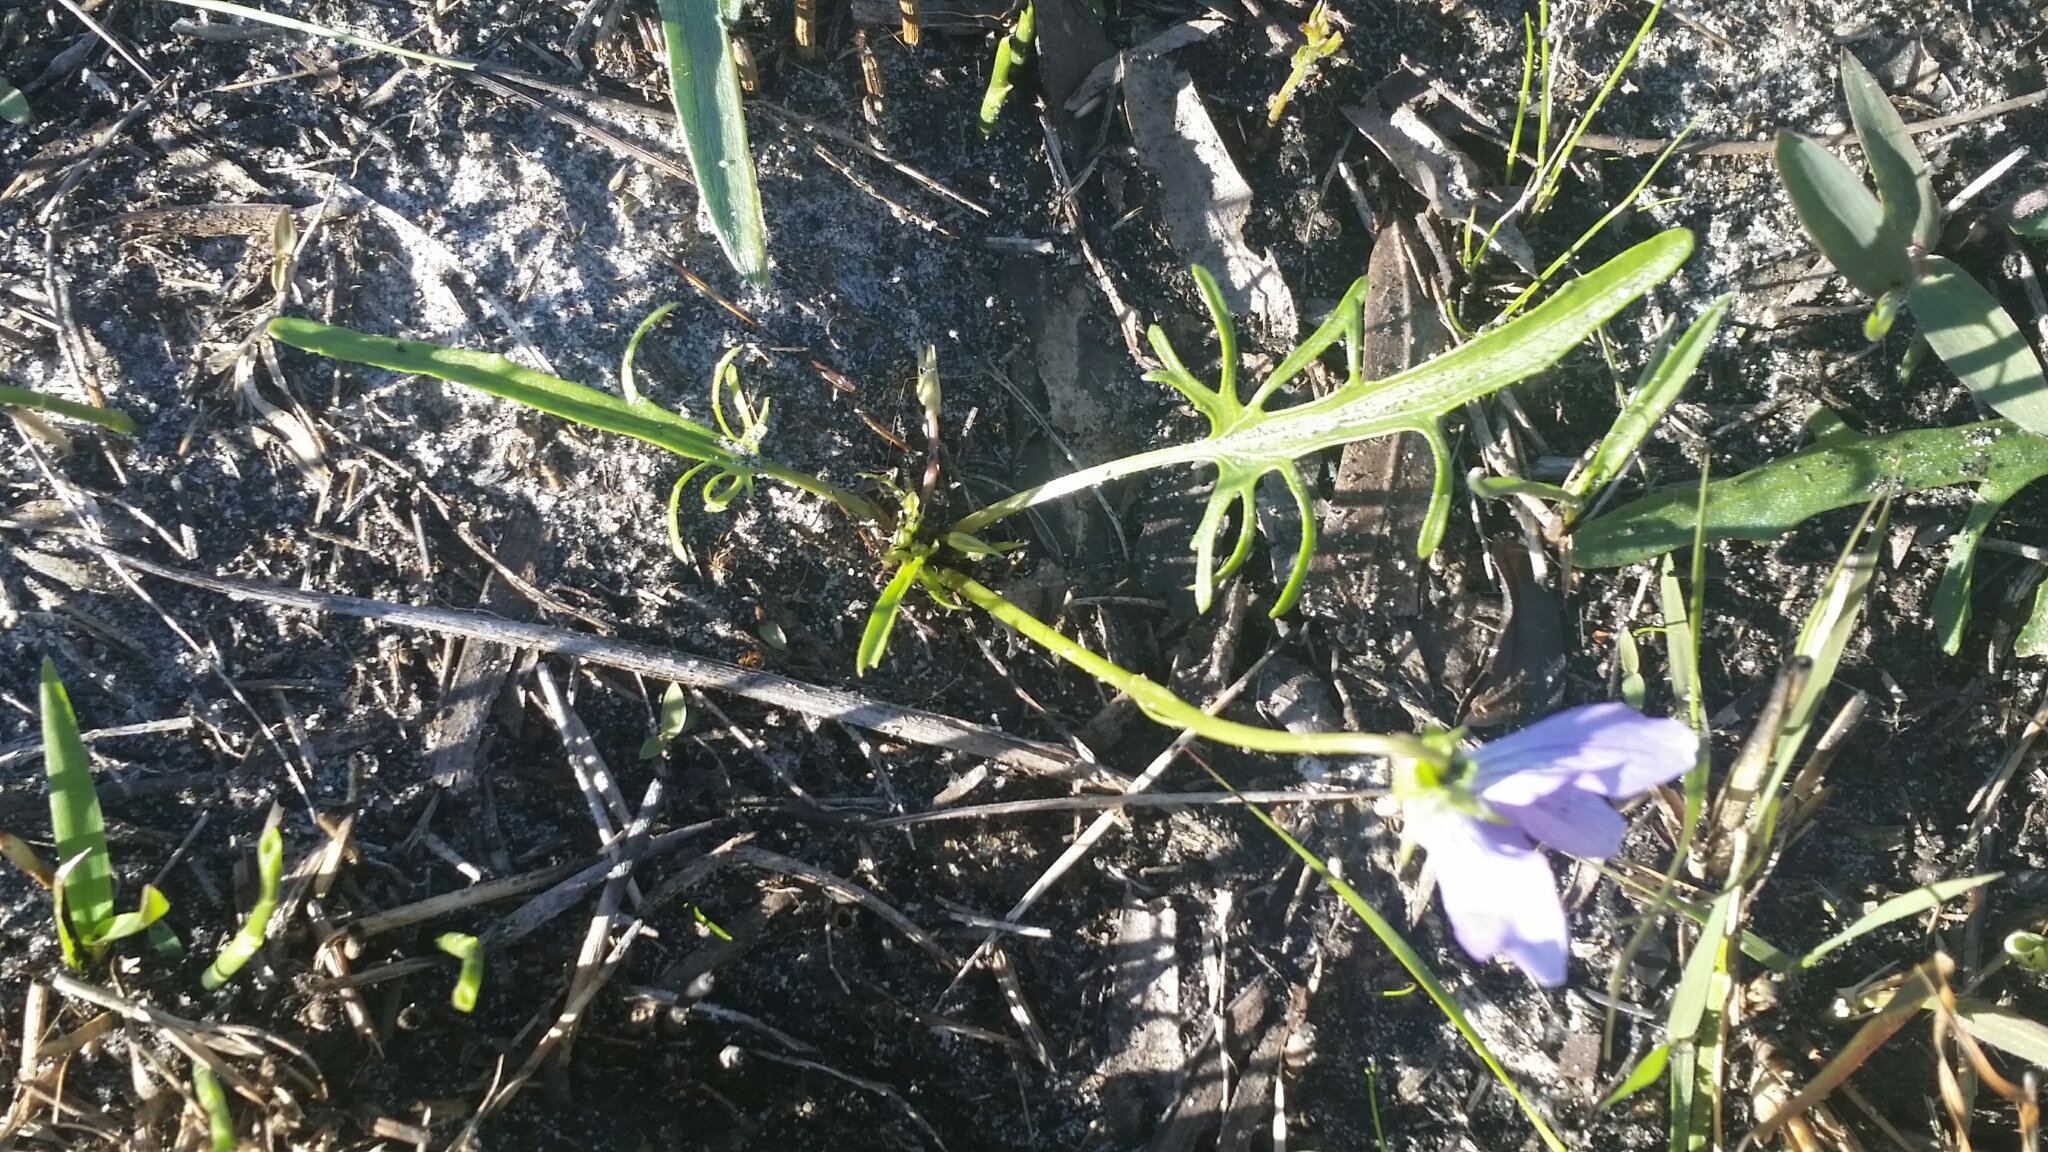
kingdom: Plantae
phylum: Tracheophyta
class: Magnoliopsida
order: Malpighiales
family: Violaceae
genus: Viola
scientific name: Viola septemloba
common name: Southern coast violet
